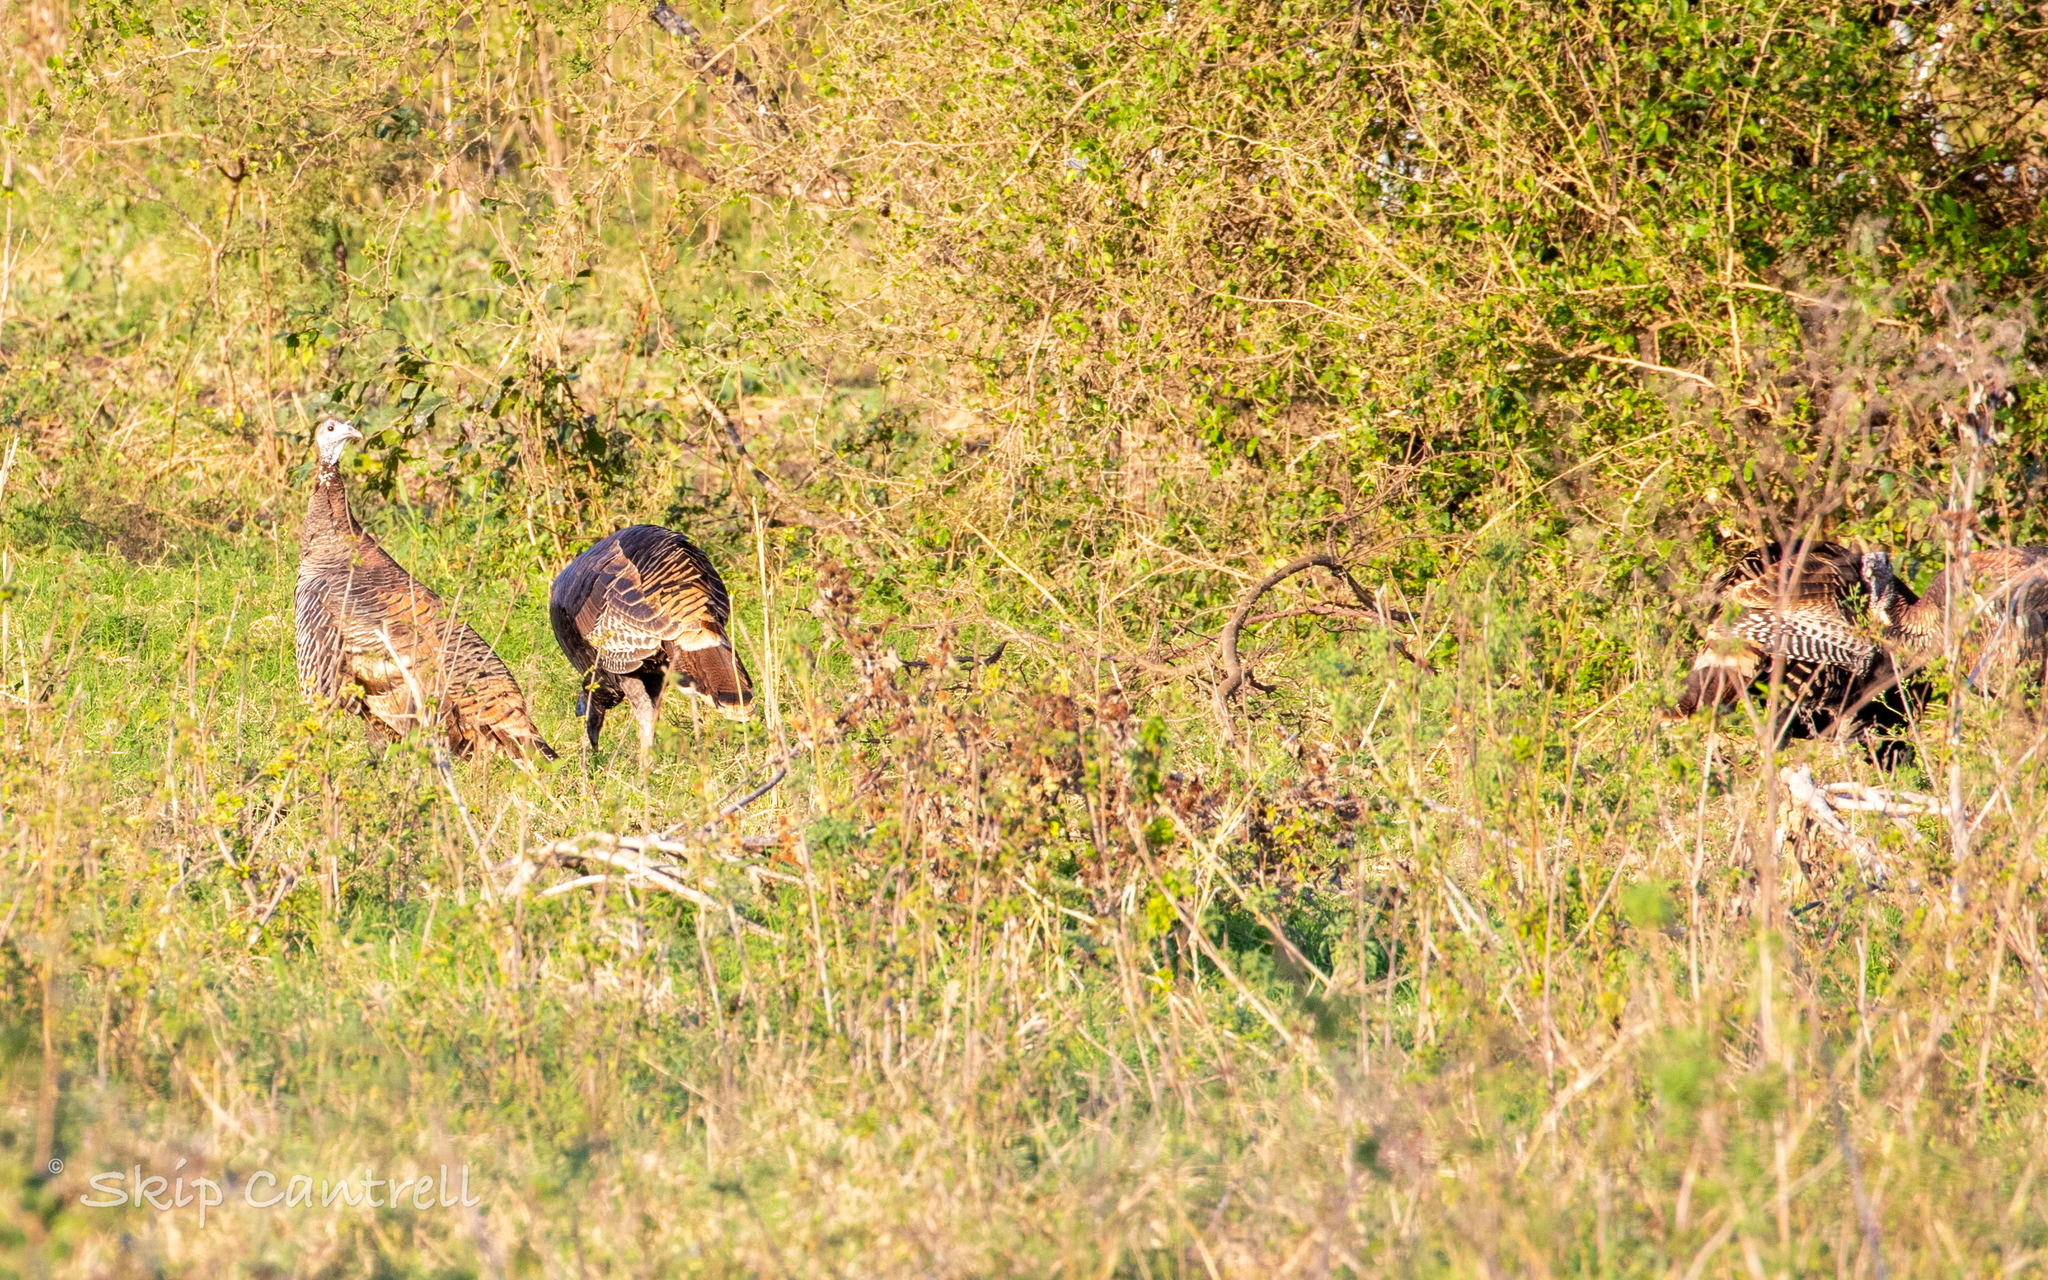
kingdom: Animalia
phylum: Chordata
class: Aves
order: Galliformes
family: Phasianidae
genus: Meleagris
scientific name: Meleagris gallopavo
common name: Wild turkey
